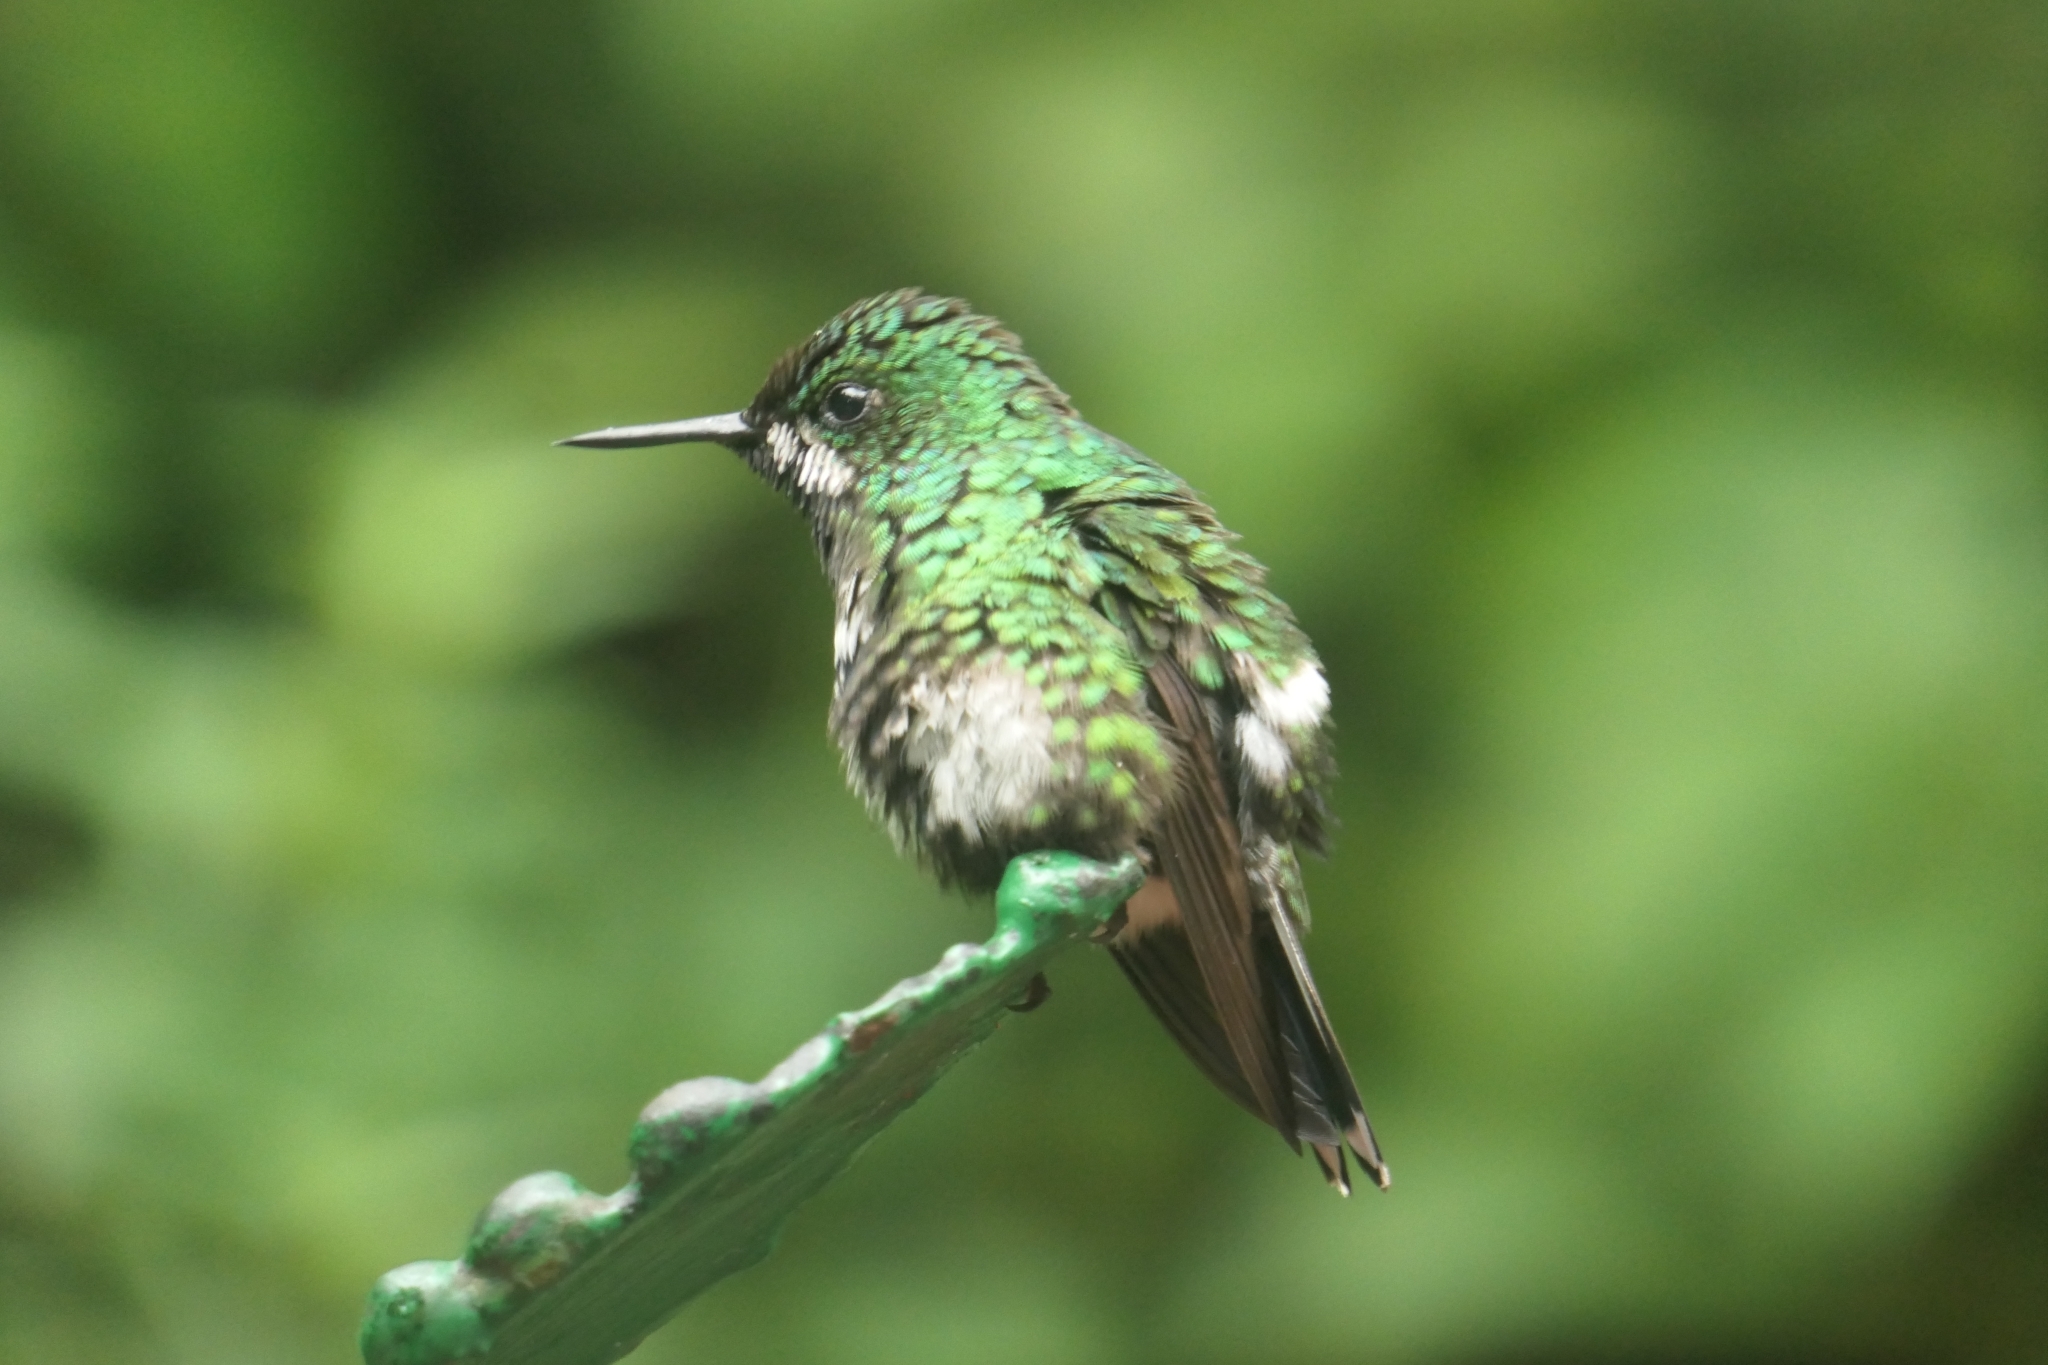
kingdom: Animalia
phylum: Chordata
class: Aves
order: Apodiformes
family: Trochilidae
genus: Discosura
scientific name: Discosura conversii
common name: Green thorntail
